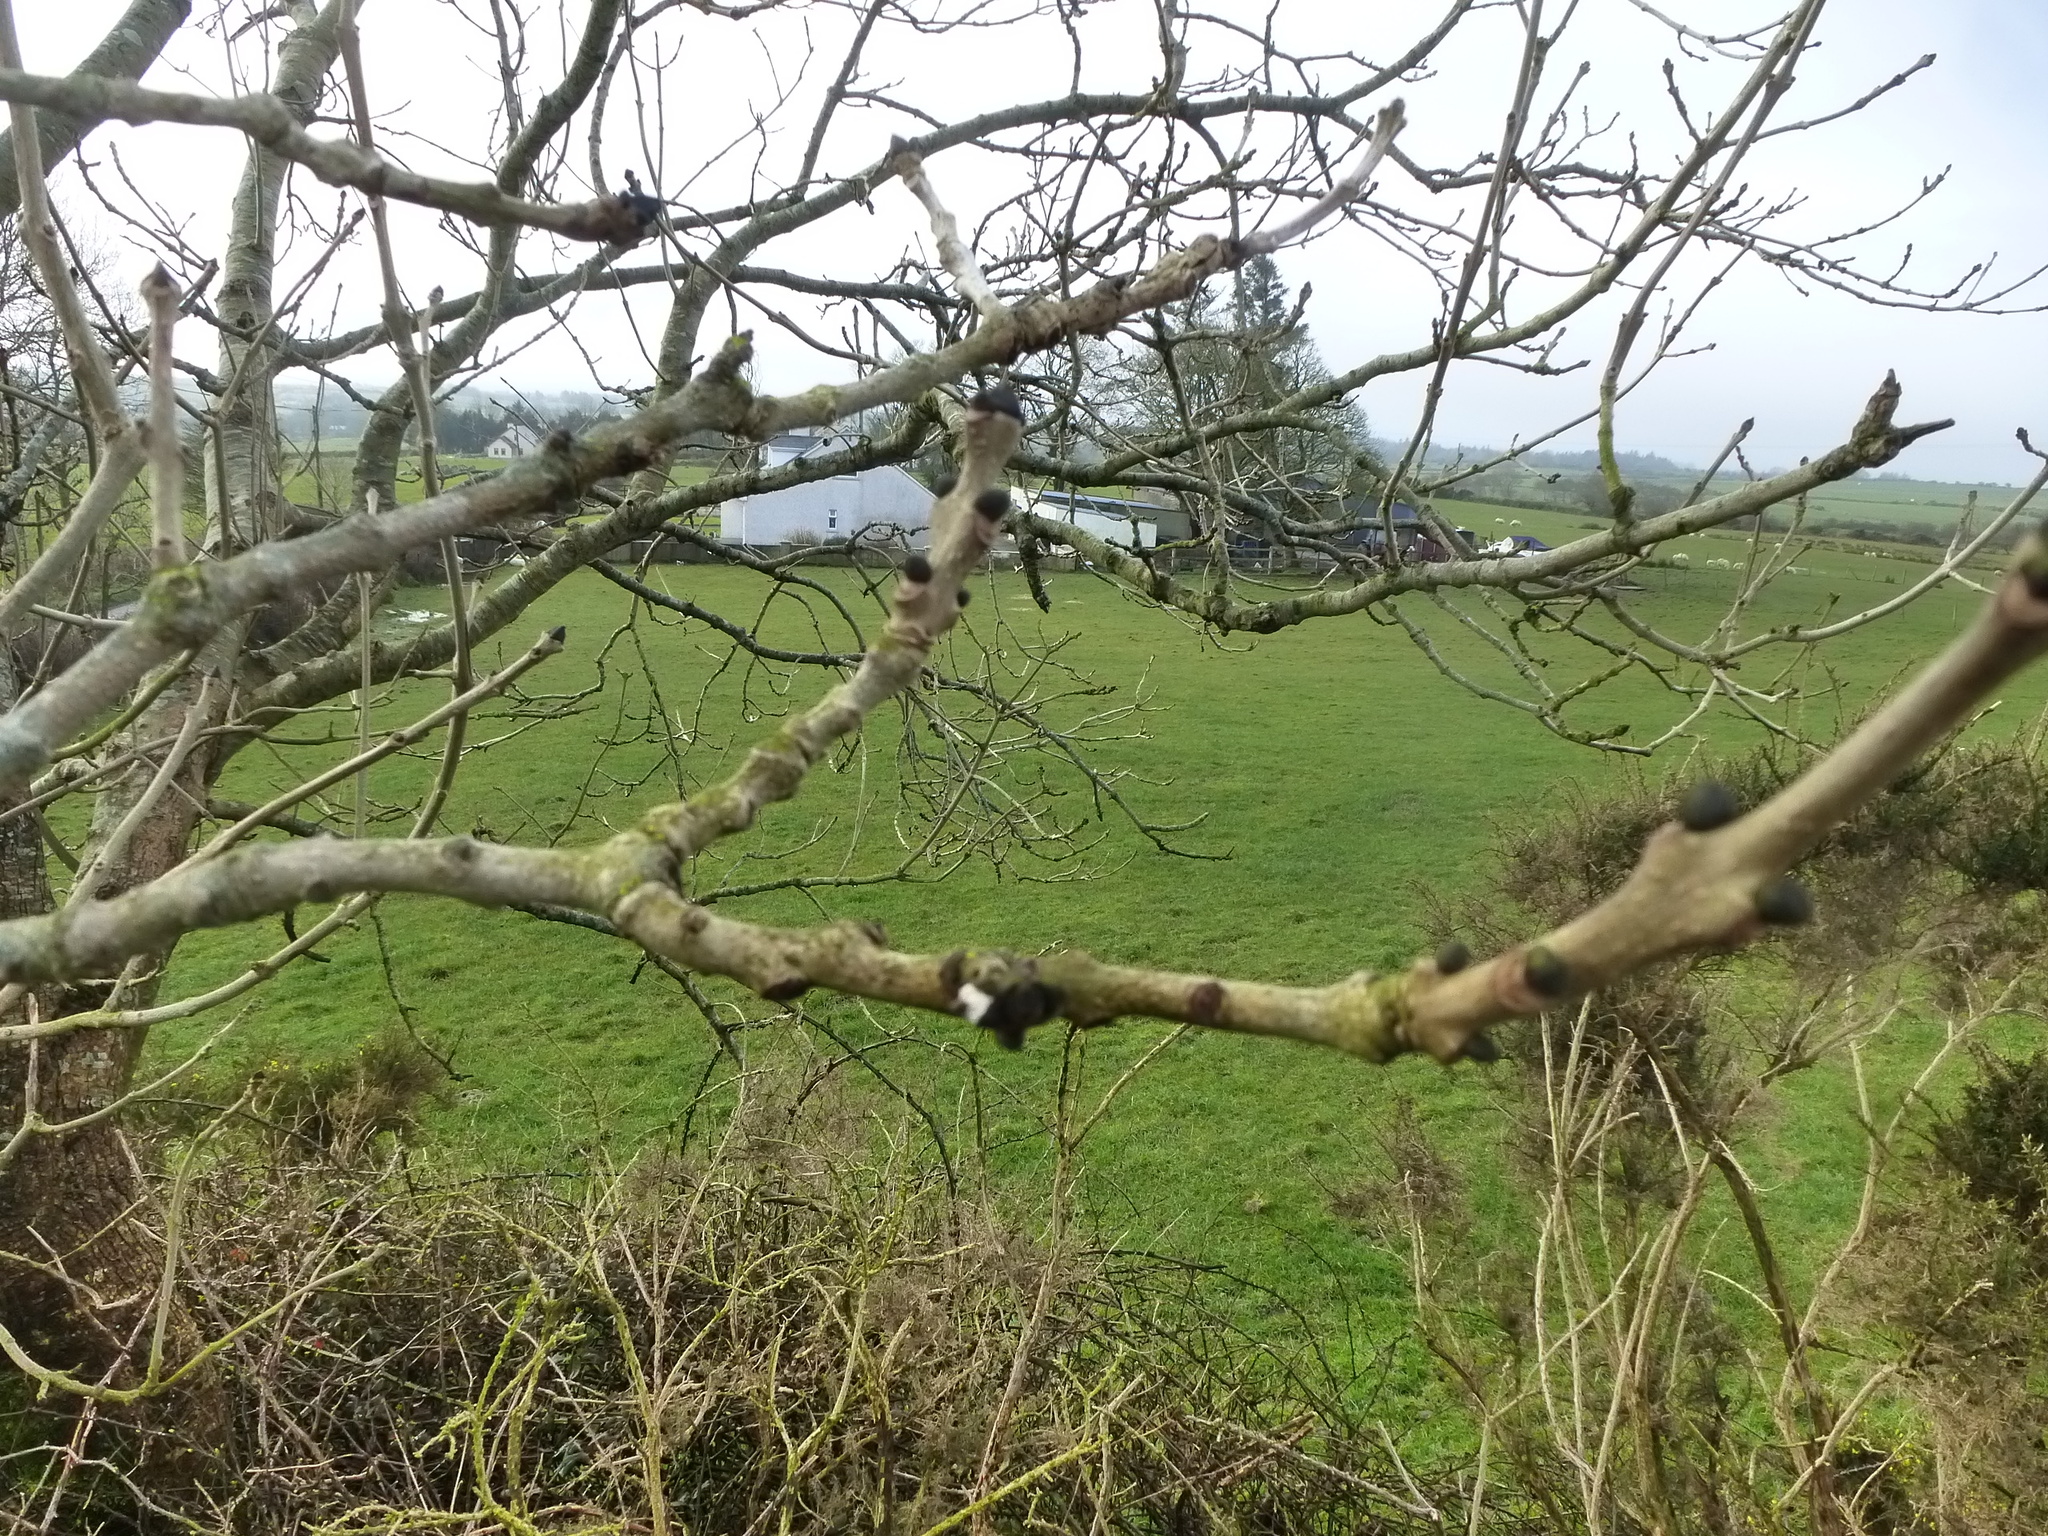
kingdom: Plantae
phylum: Tracheophyta
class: Magnoliopsida
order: Lamiales
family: Oleaceae
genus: Fraxinus
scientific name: Fraxinus excelsior
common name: European ash
